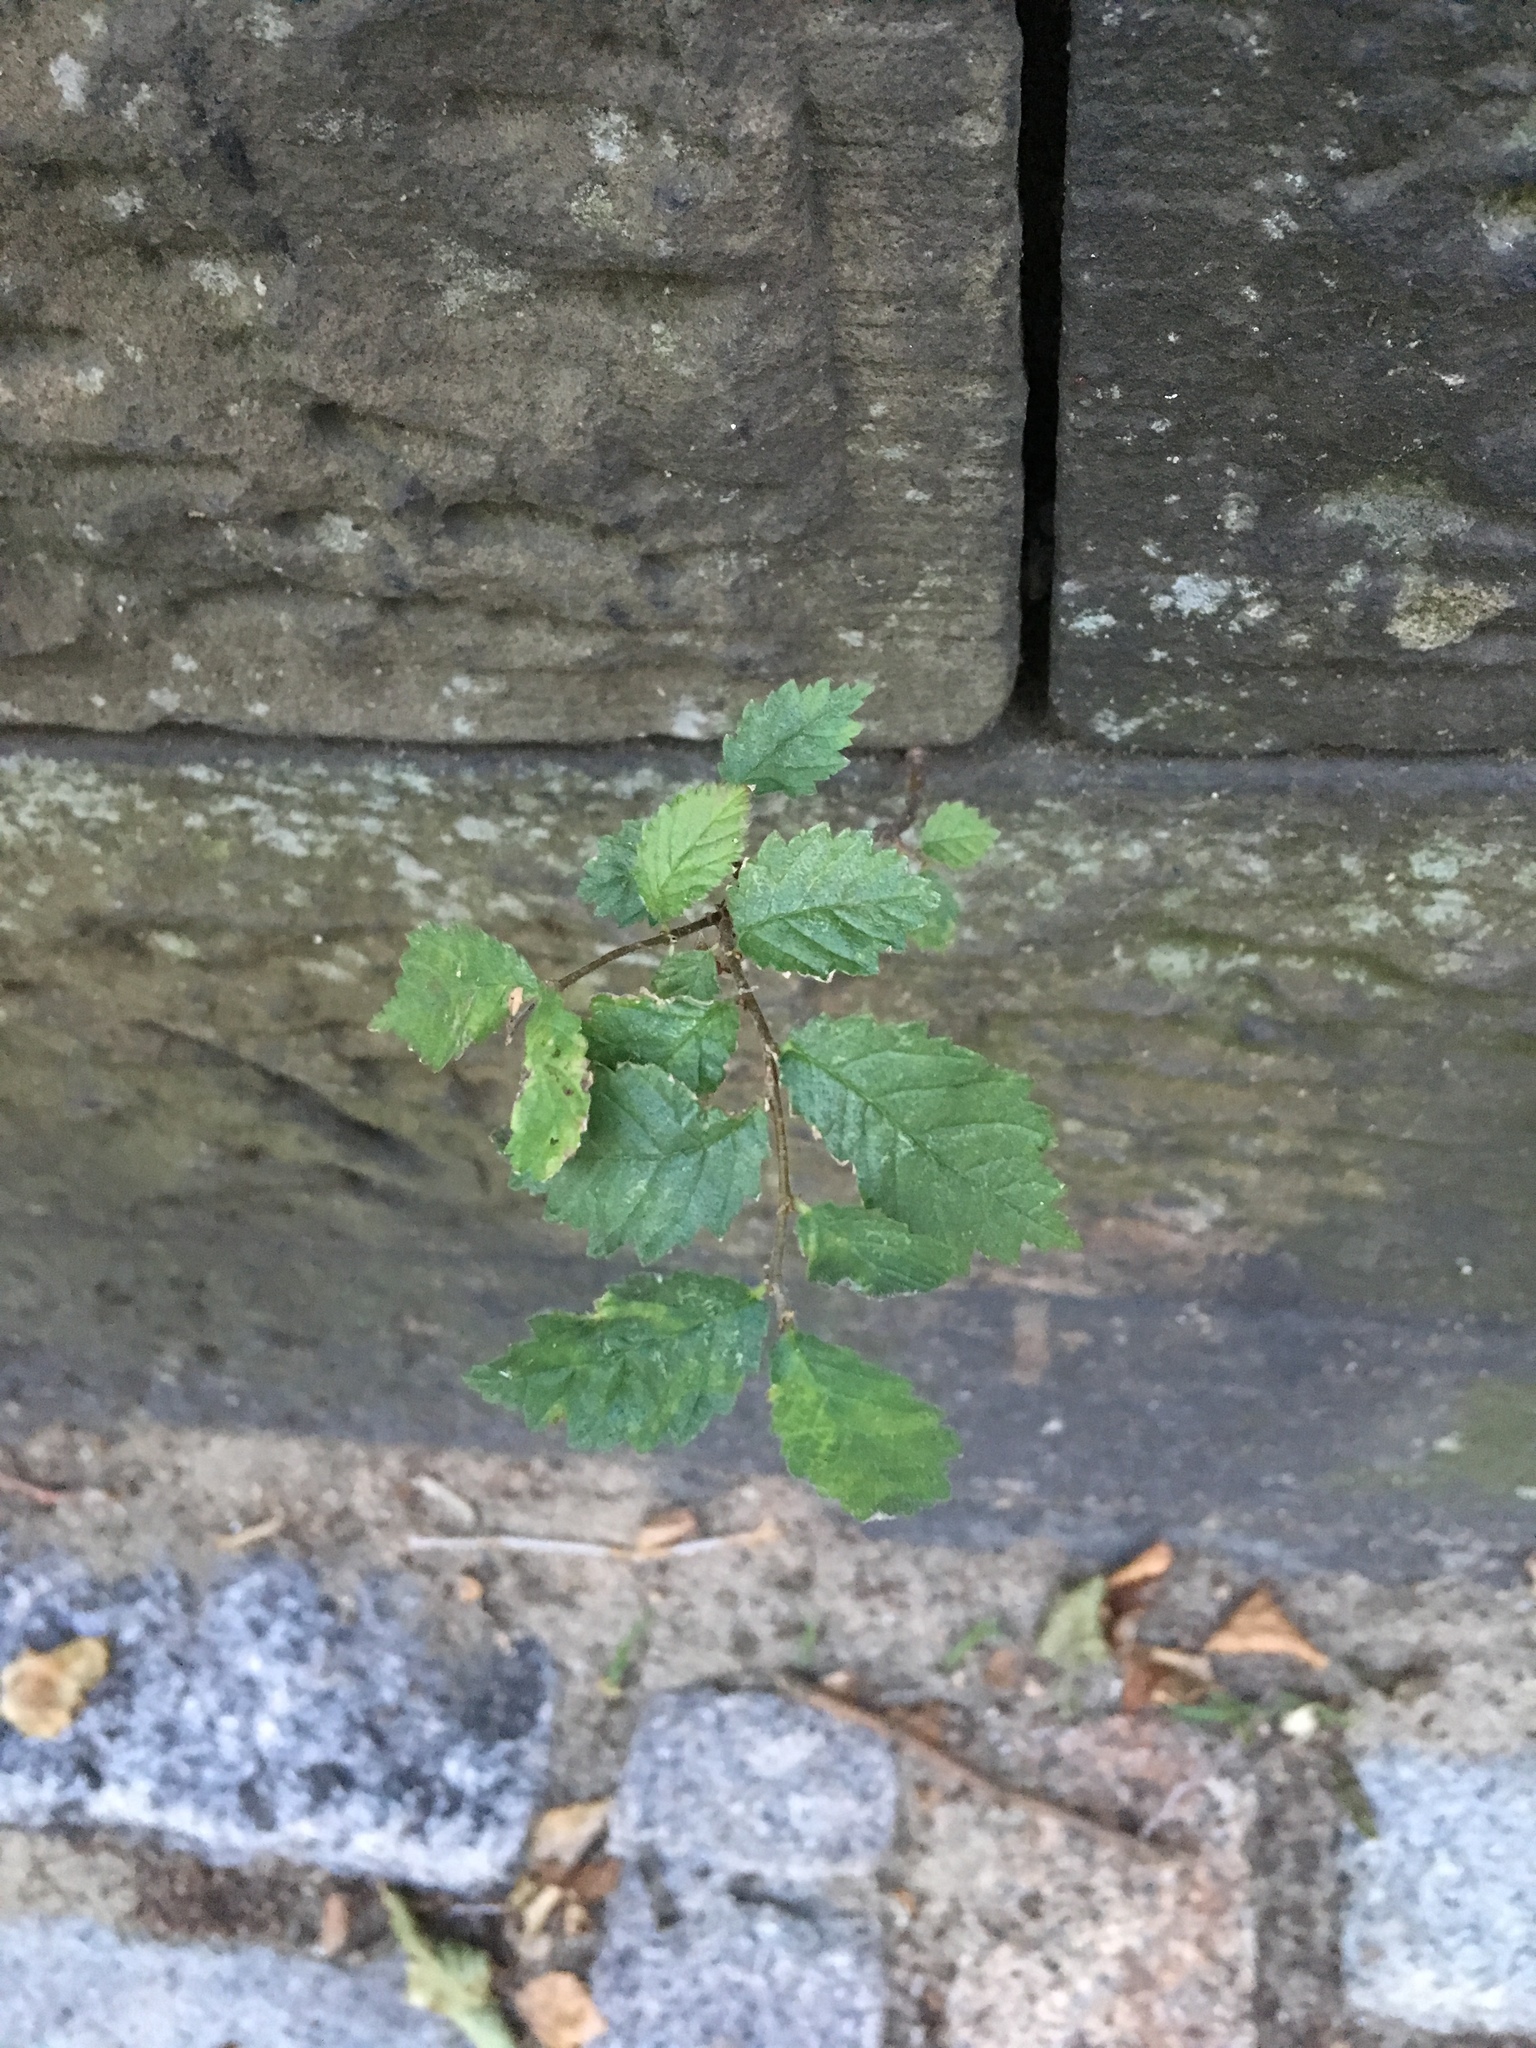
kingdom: Plantae
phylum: Tracheophyta
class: Magnoliopsida
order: Rosales
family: Ulmaceae
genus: Ulmus
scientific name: Ulmus pumila
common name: Siberian elm
